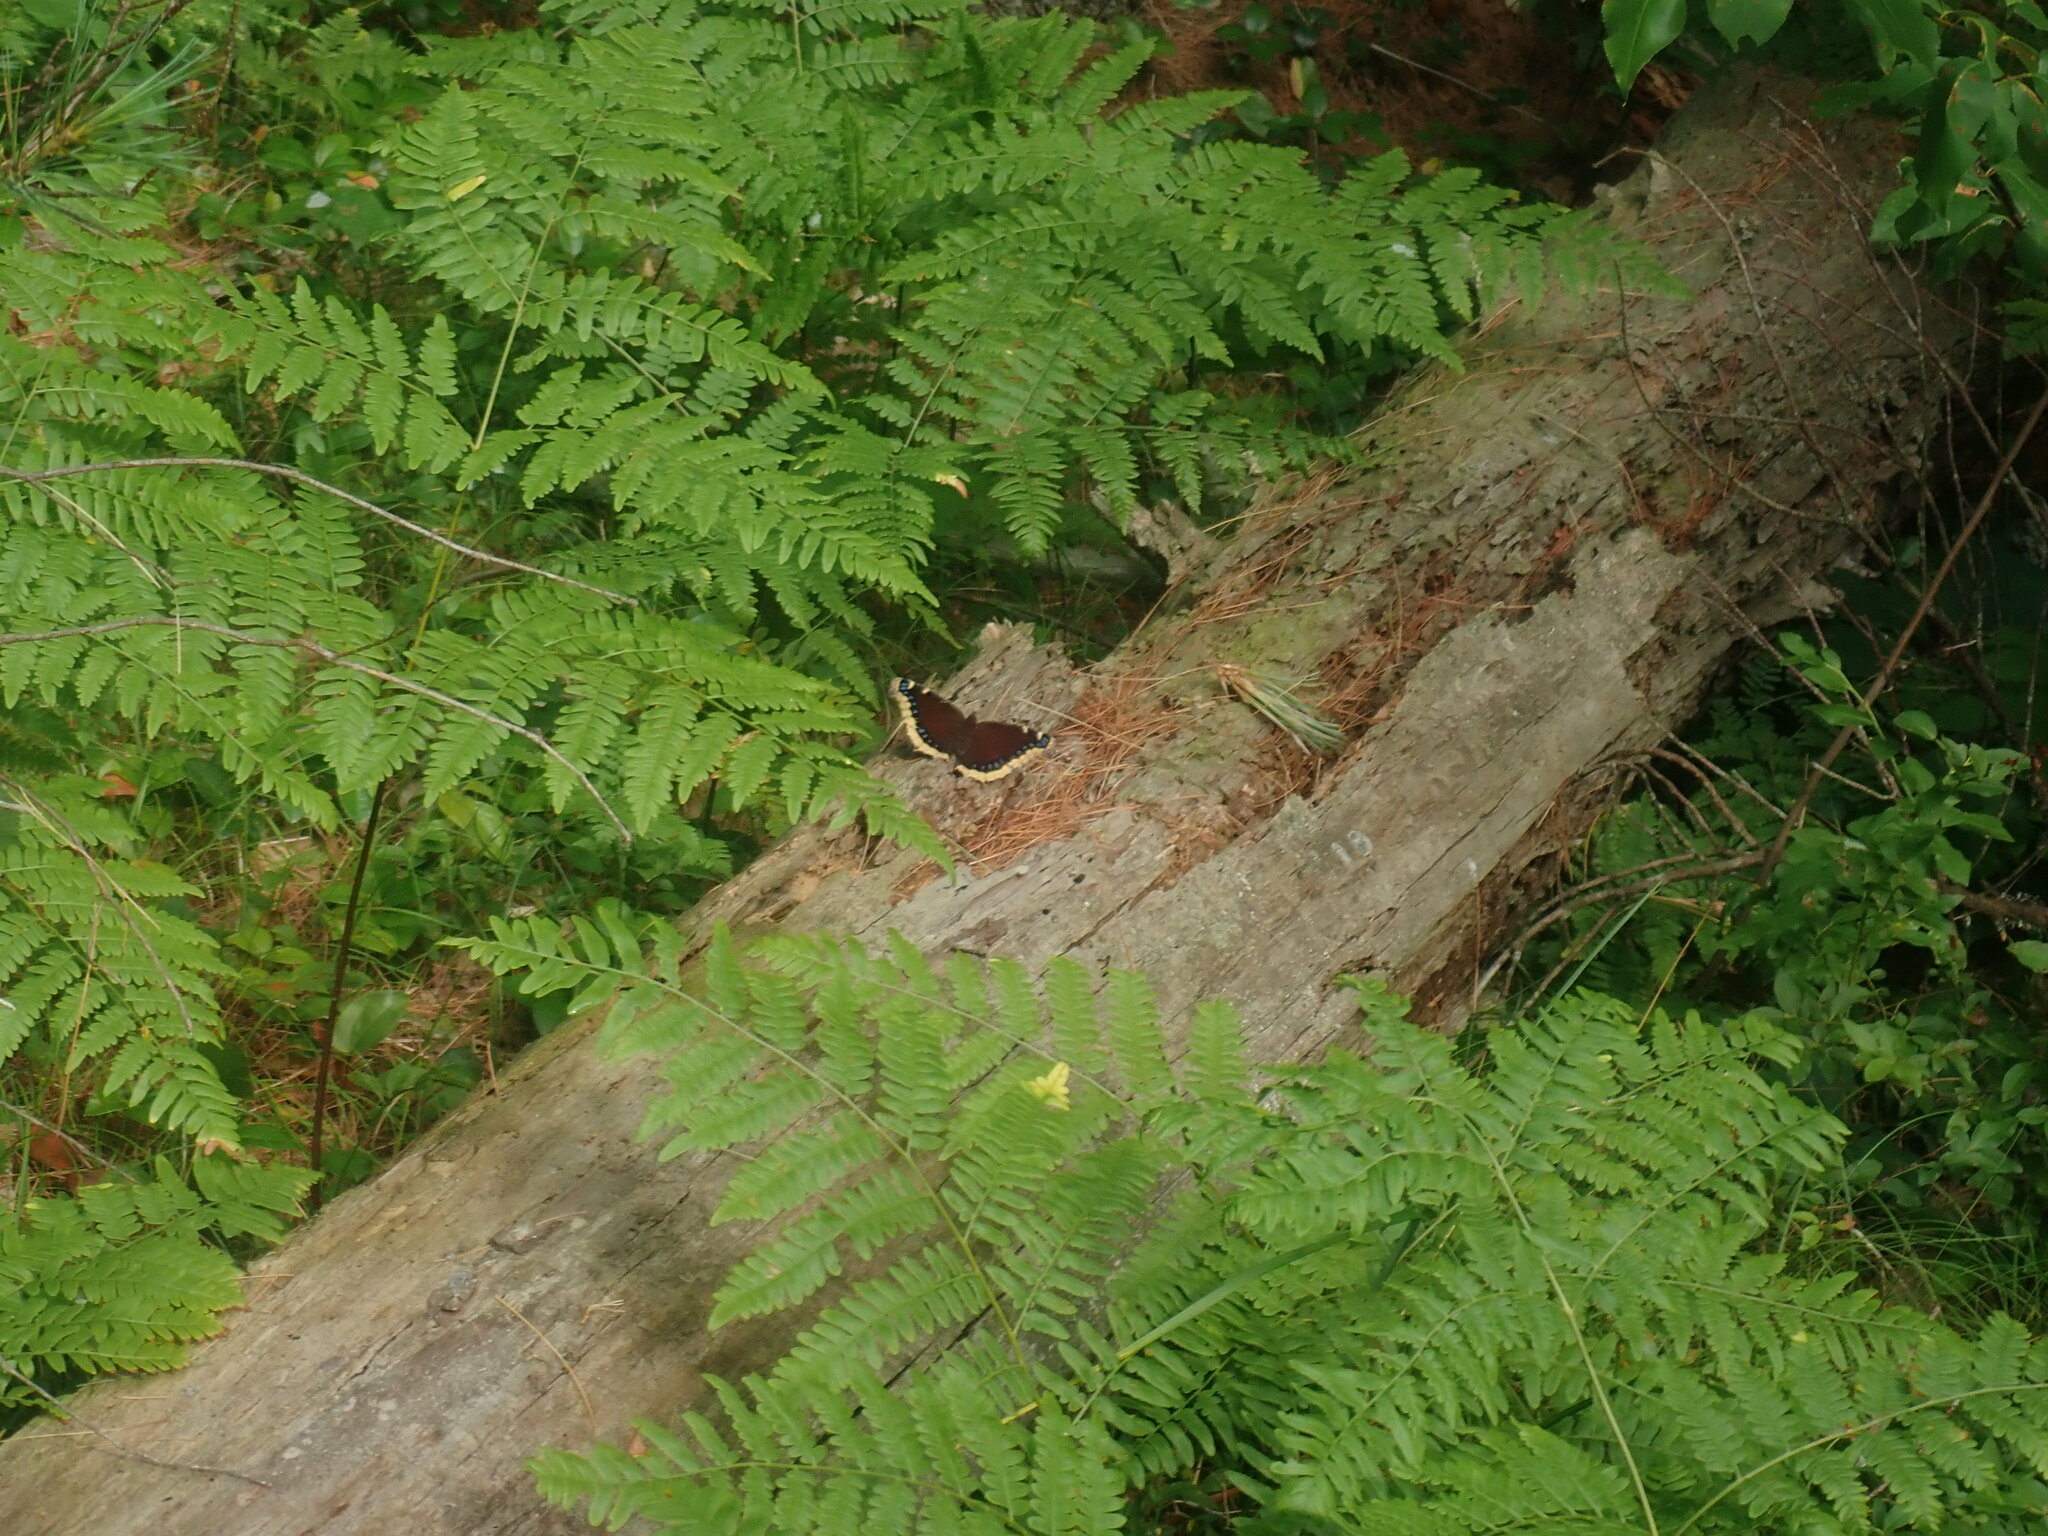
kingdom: Animalia
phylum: Arthropoda
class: Insecta
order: Lepidoptera
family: Nymphalidae
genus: Nymphalis
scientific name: Nymphalis antiopa
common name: Camberwell beauty
